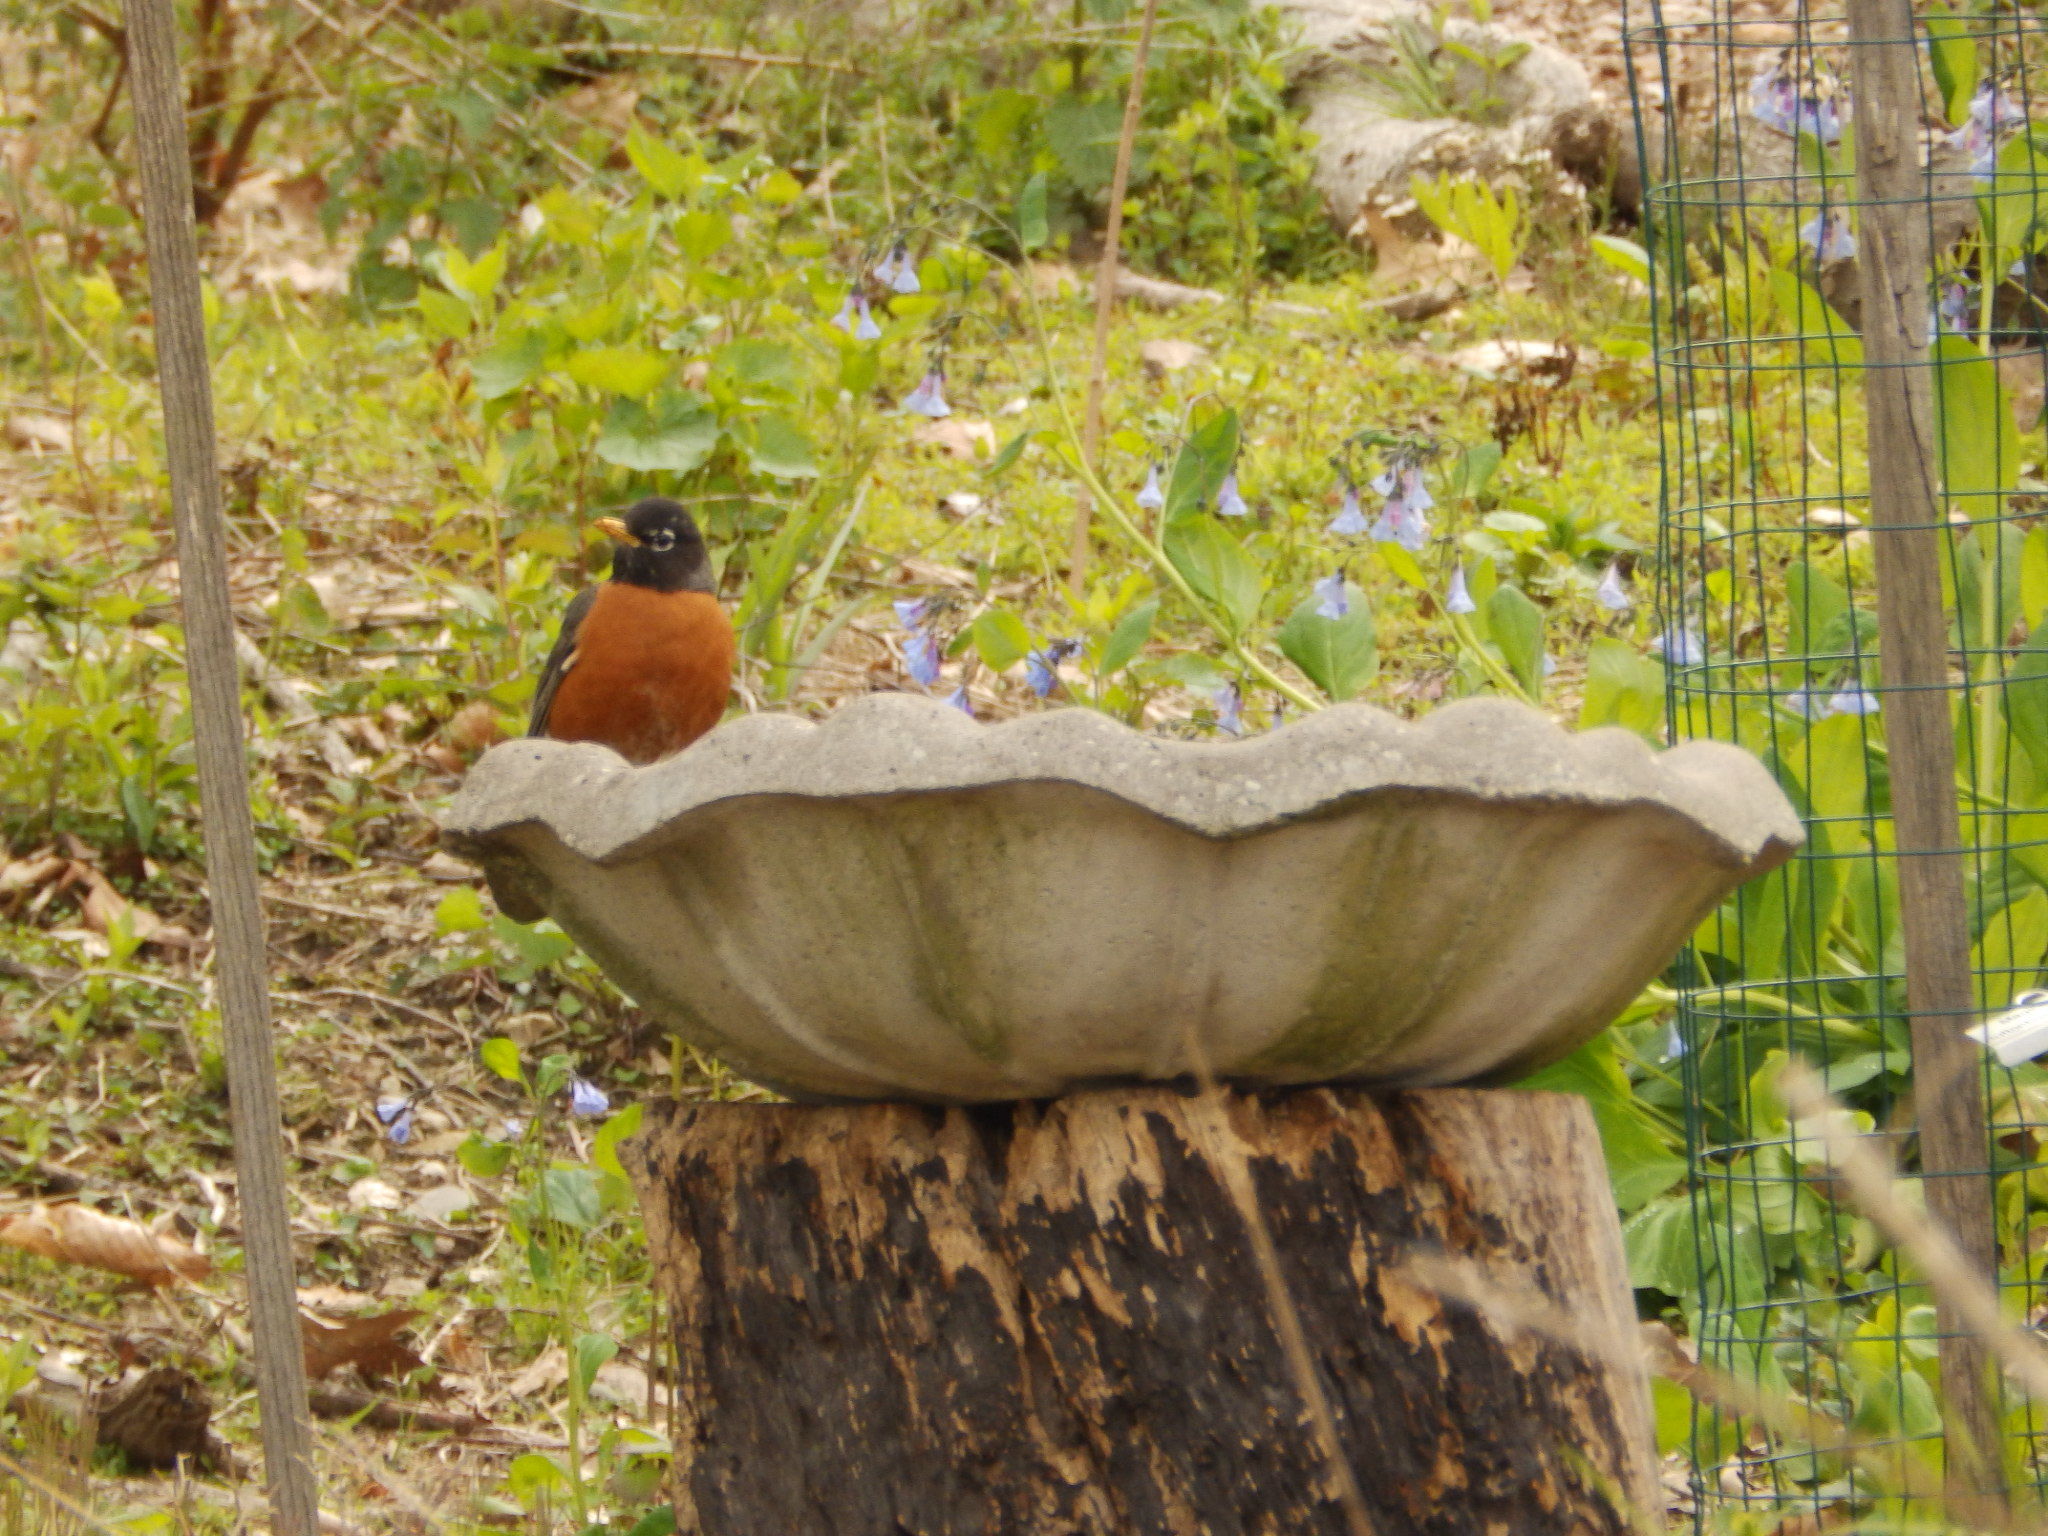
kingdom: Animalia
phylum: Chordata
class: Aves
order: Passeriformes
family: Turdidae
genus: Turdus
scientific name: Turdus migratorius
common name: American robin
